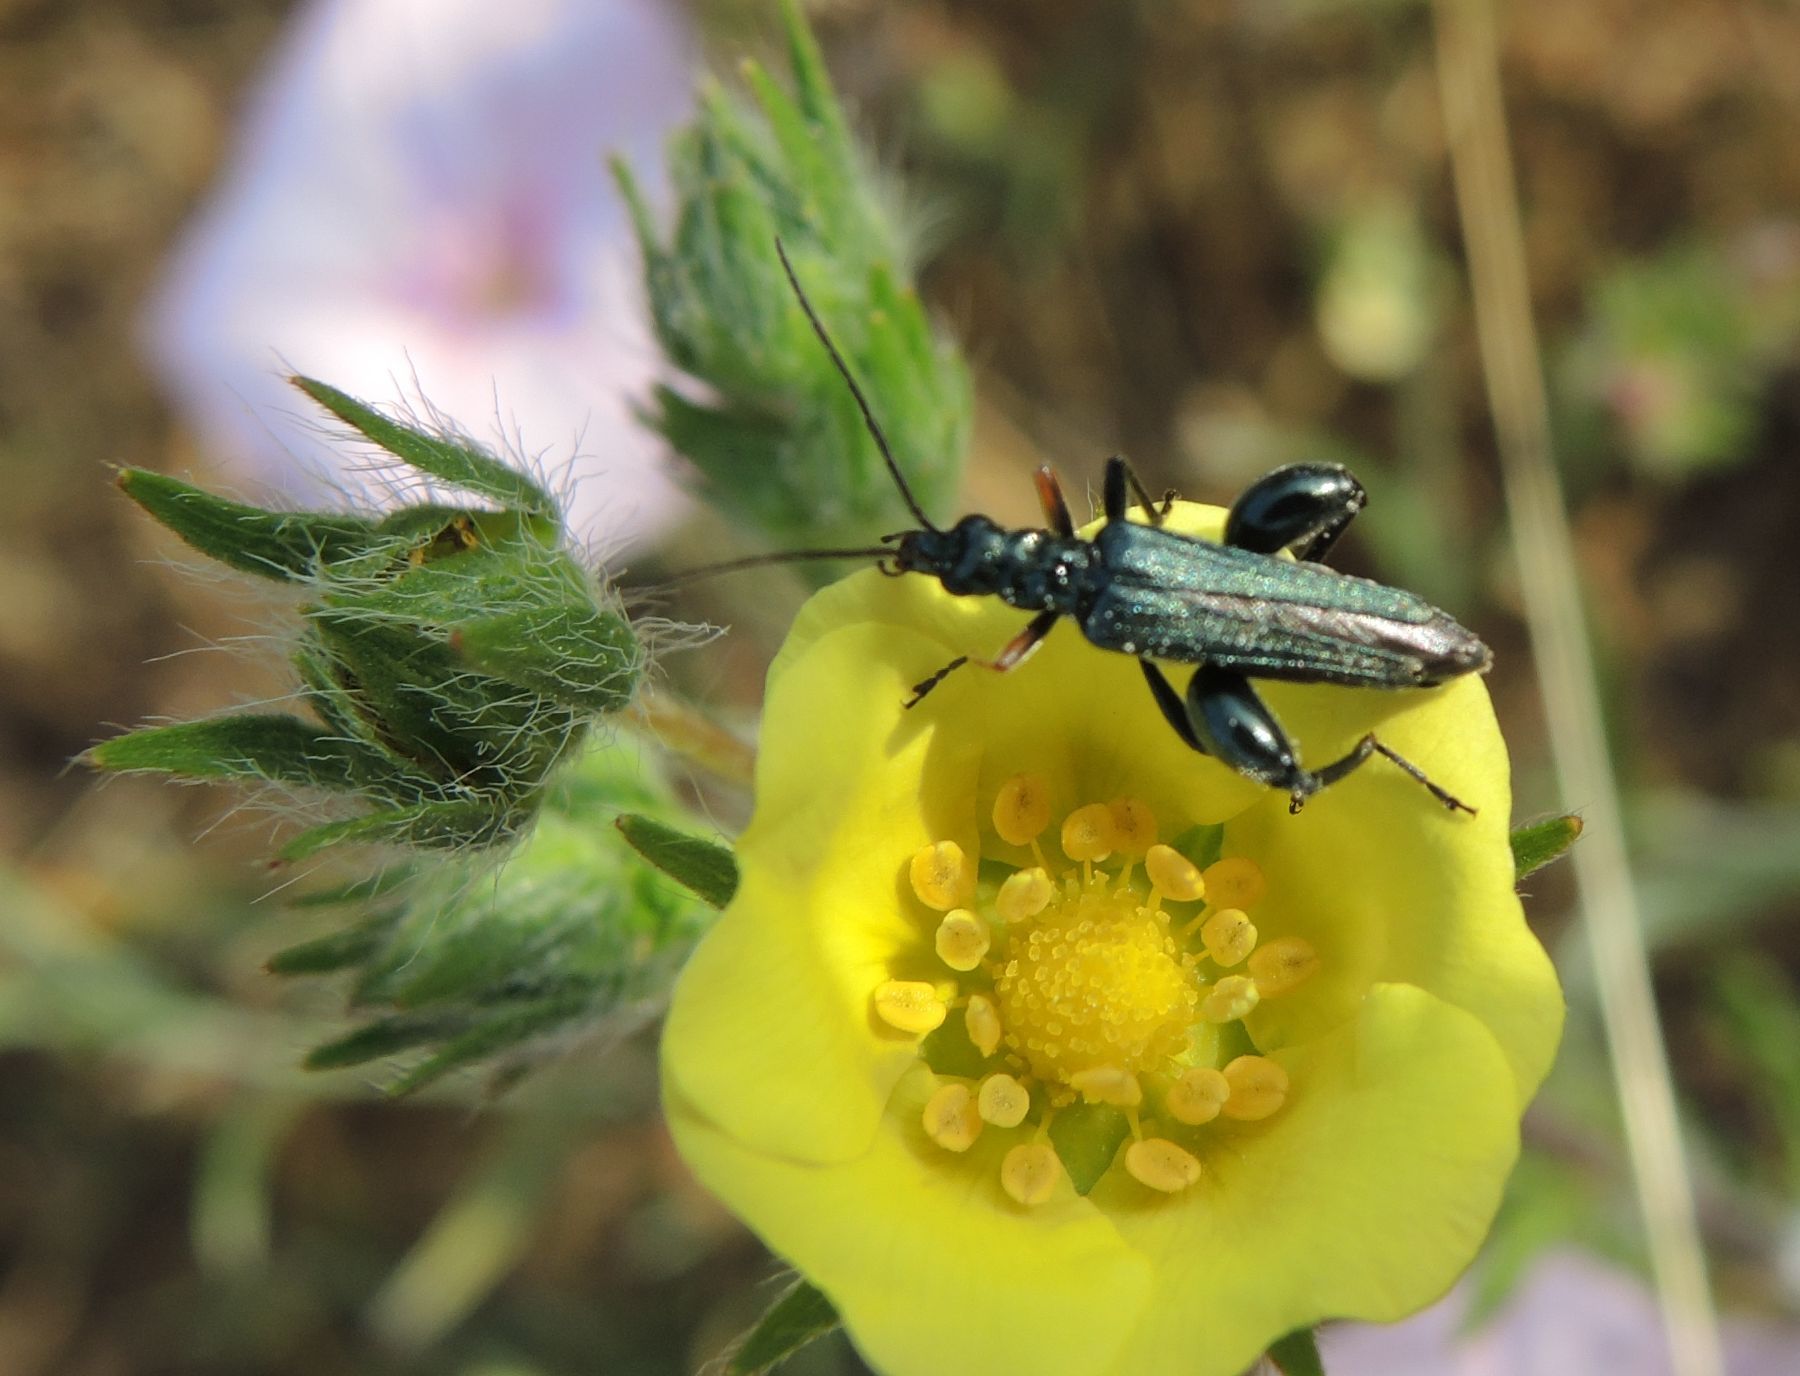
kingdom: Animalia
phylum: Arthropoda
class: Insecta
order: Coleoptera
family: Oedemeridae
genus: Oedemera
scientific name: Oedemera flavipes
